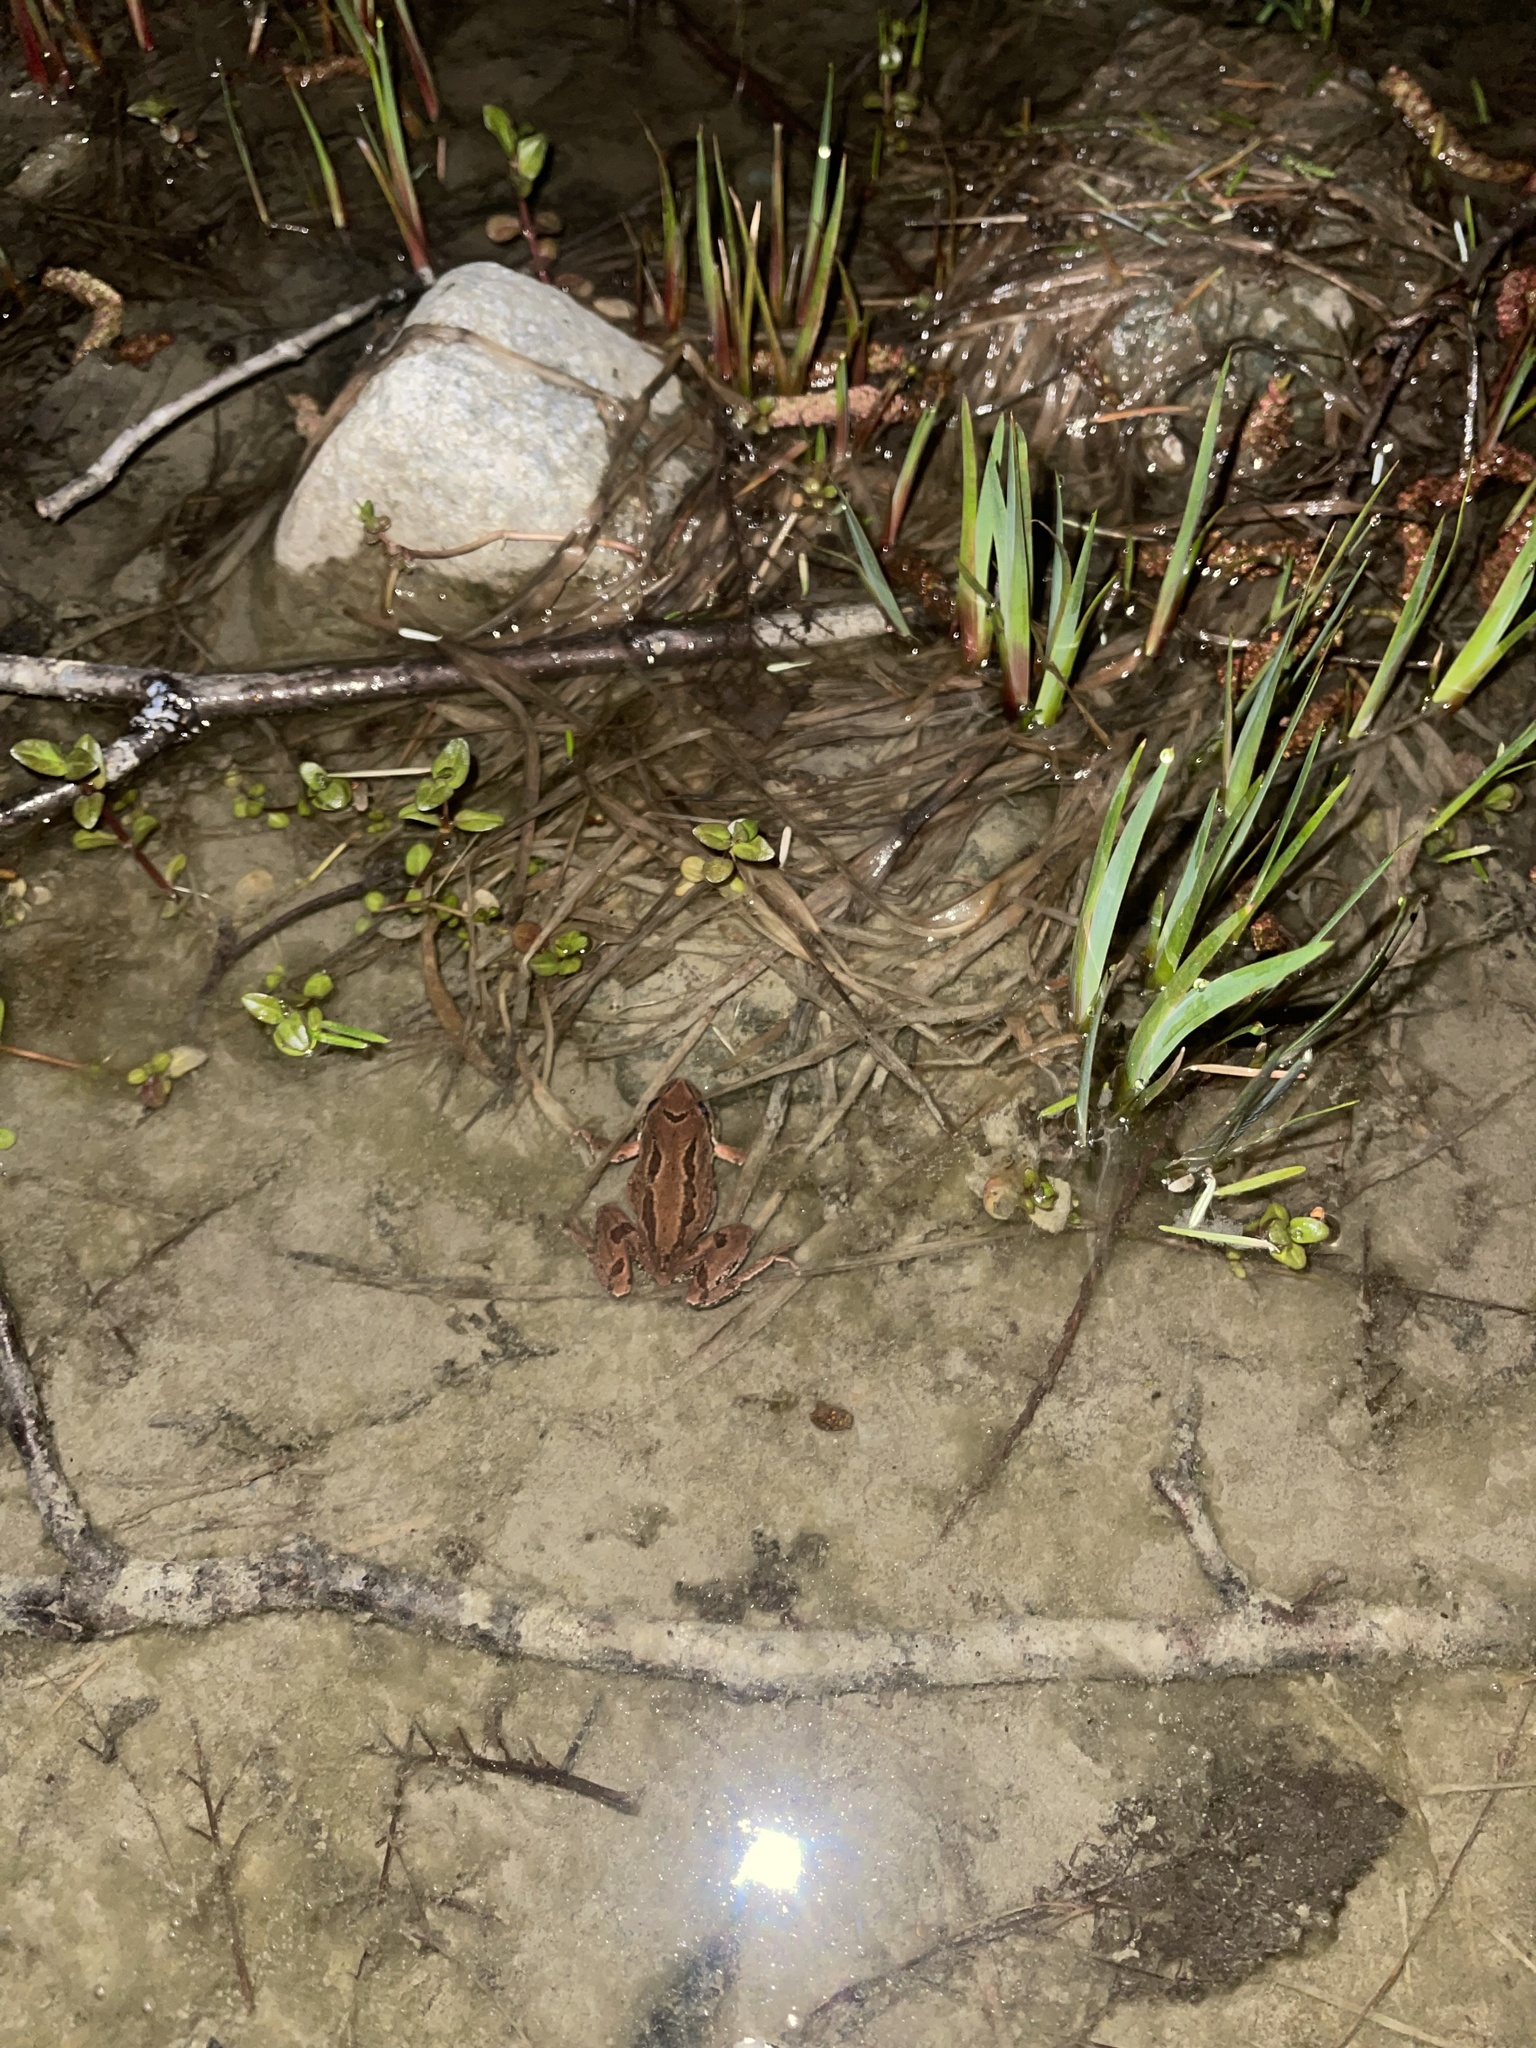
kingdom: Animalia
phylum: Chordata
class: Amphibia
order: Anura
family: Hylidae
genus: Pseudacris
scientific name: Pseudacris regilla
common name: Pacific chorus frog
